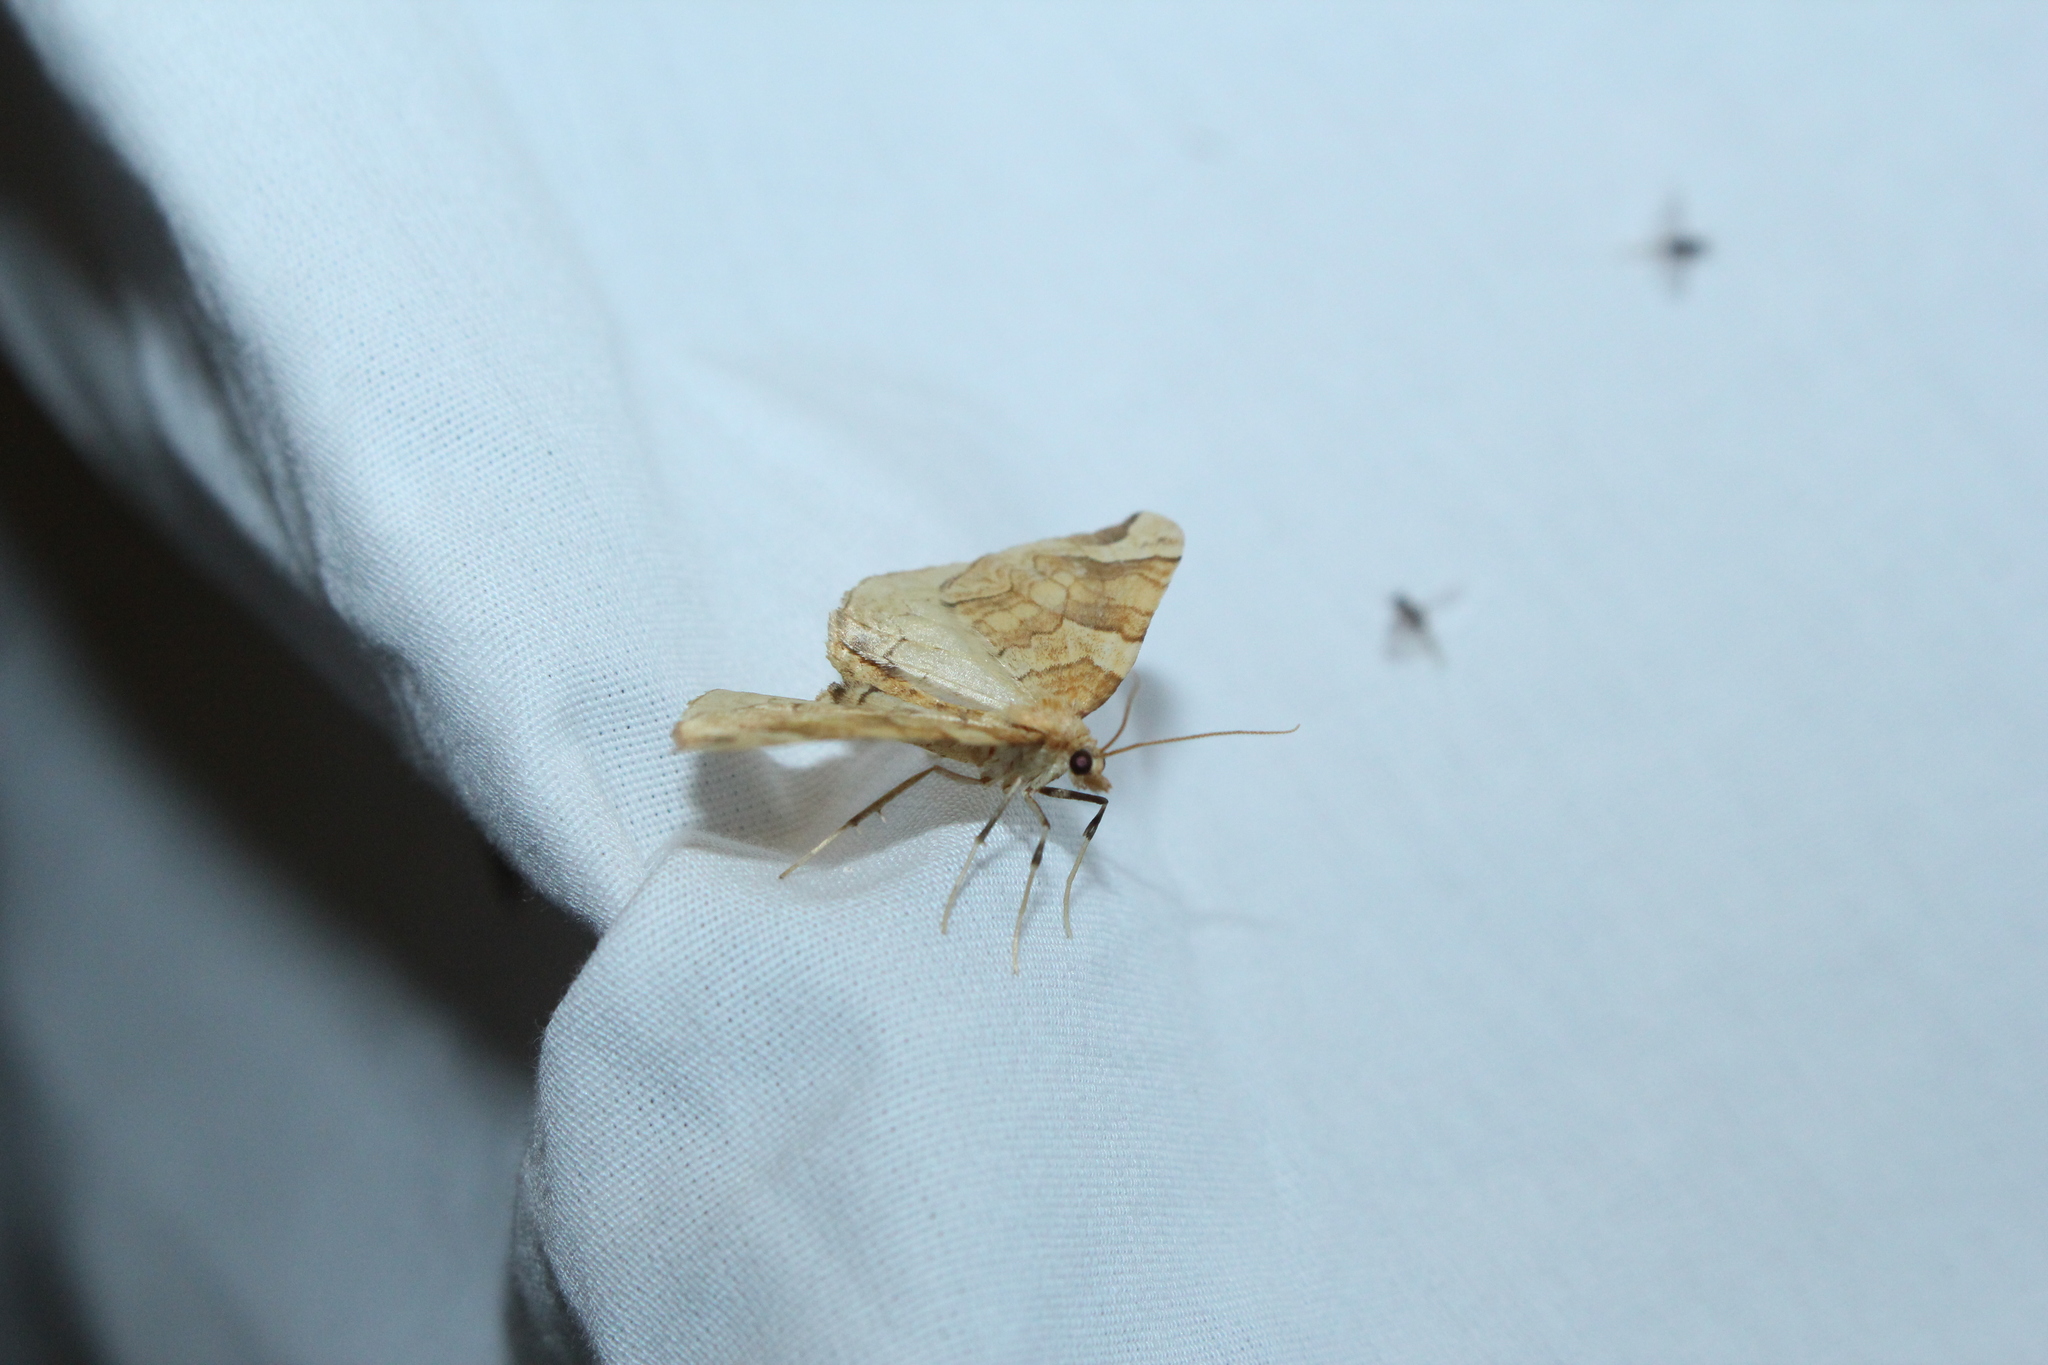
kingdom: Animalia
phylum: Arthropoda
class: Insecta
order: Lepidoptera
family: Geometridae
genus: Eulithis
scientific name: Eulithis propulsata
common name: Currant eulithis moth
